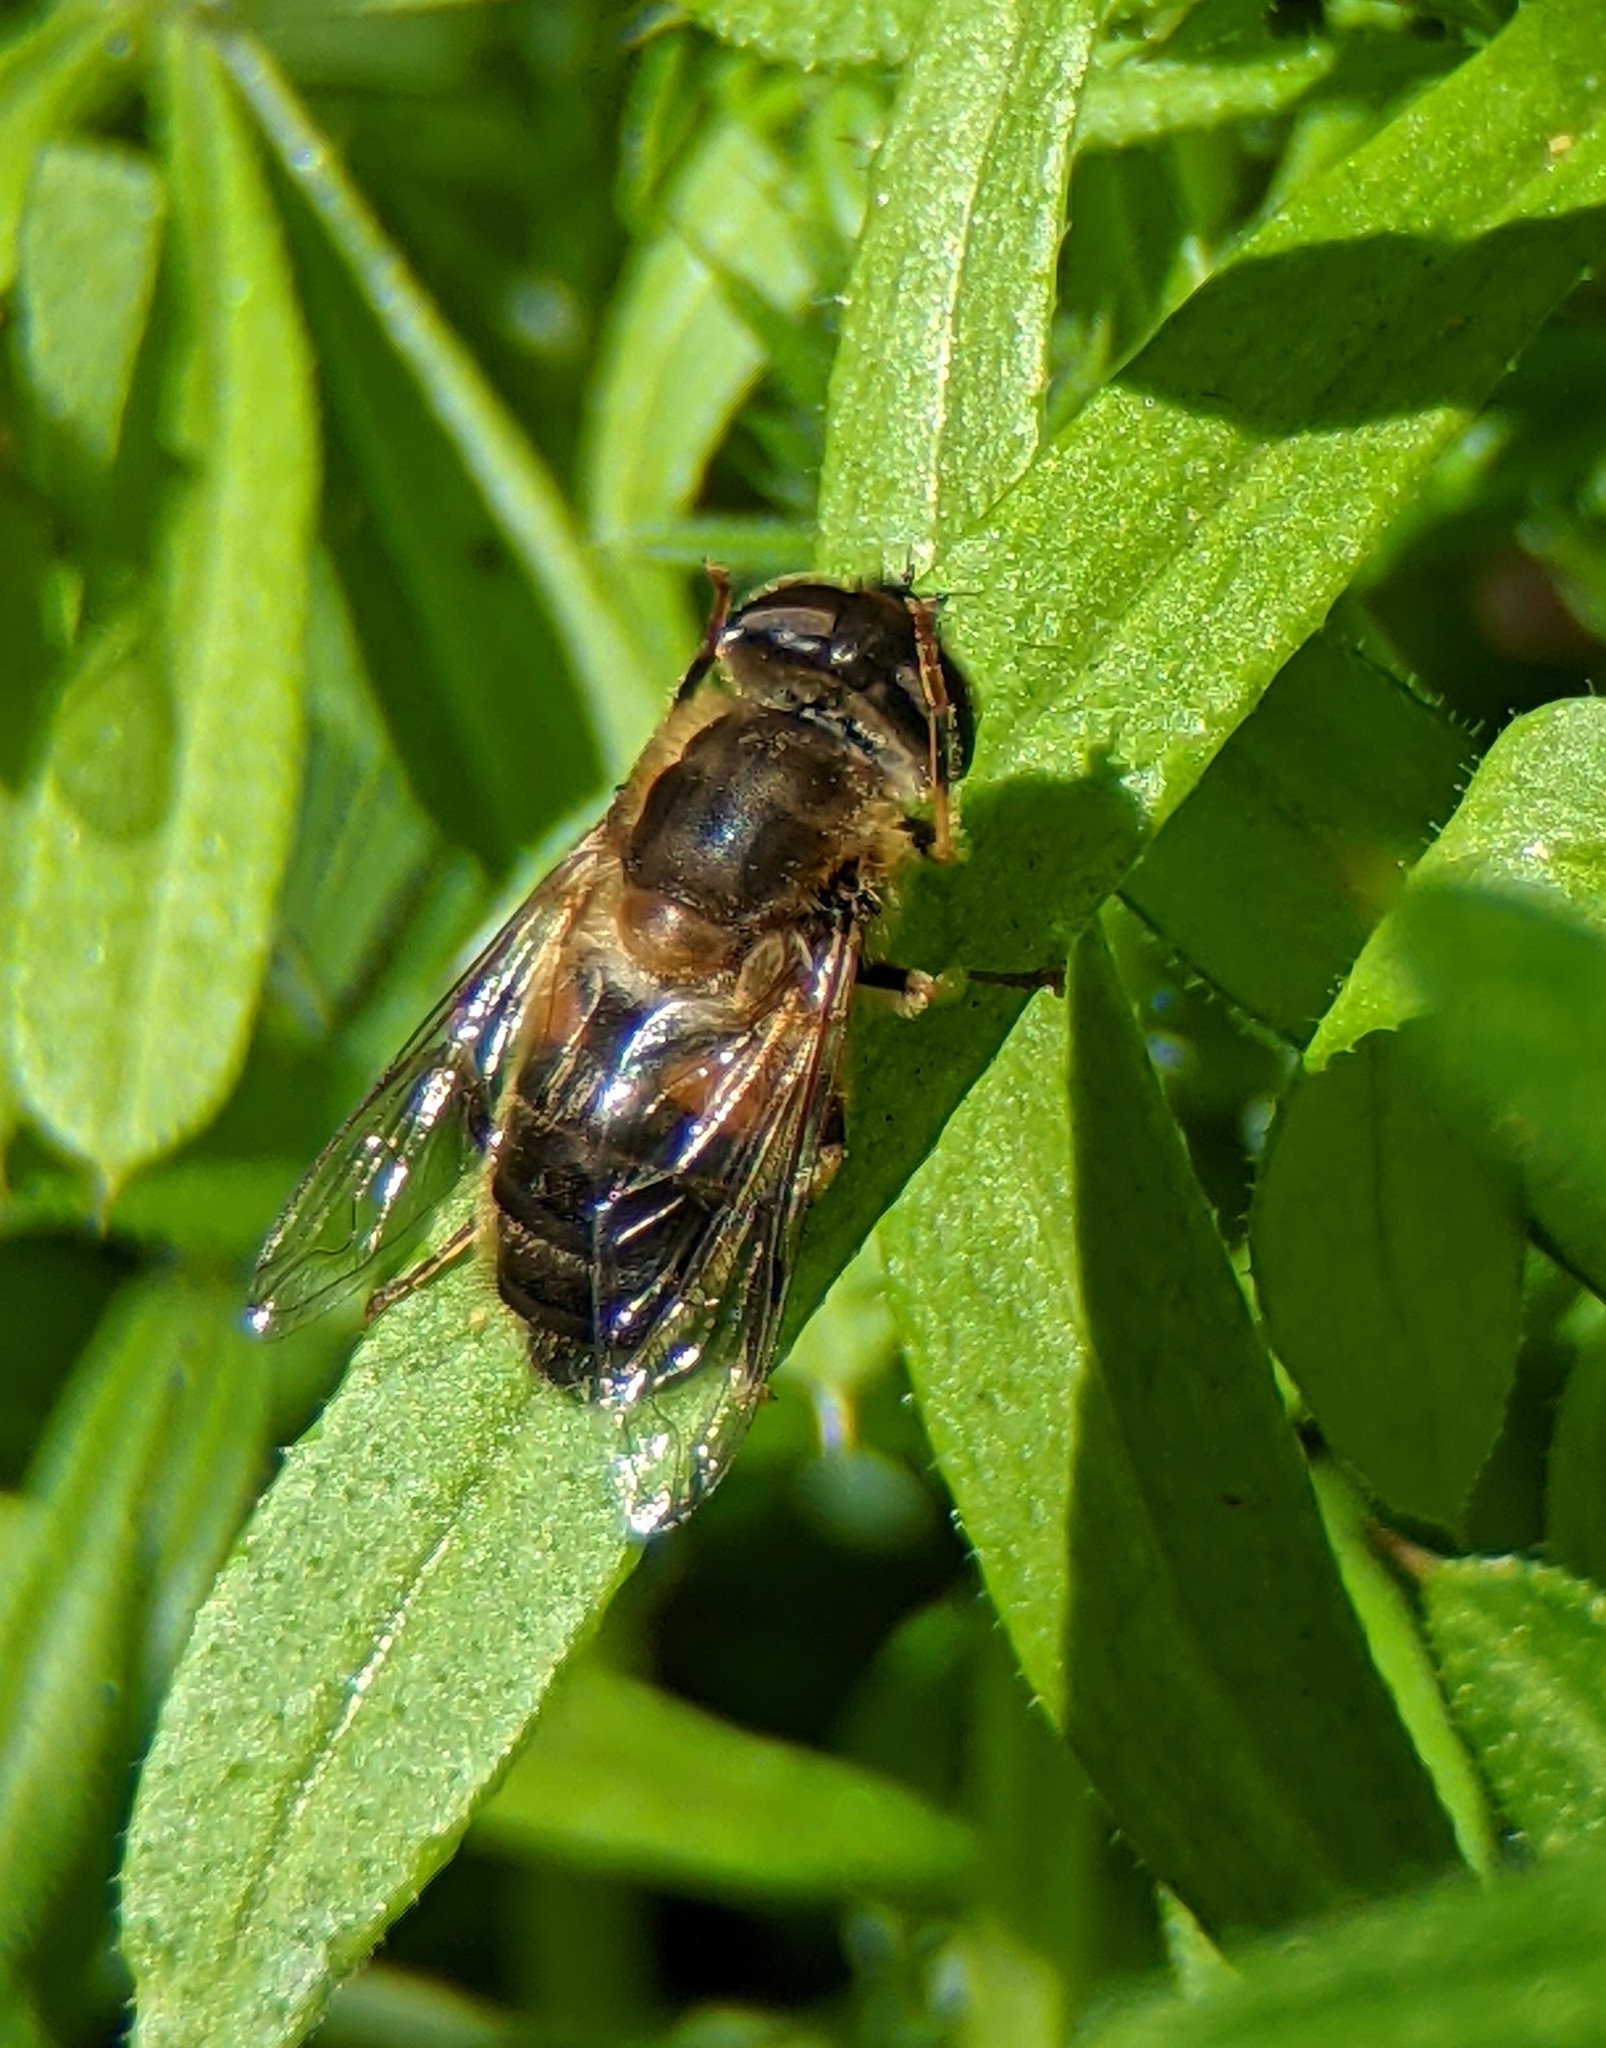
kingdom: Animalia
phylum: Arthropoda
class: Insecta
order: Diptera
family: Syrphidae
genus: Eristalis
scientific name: Eristalis pertinax
